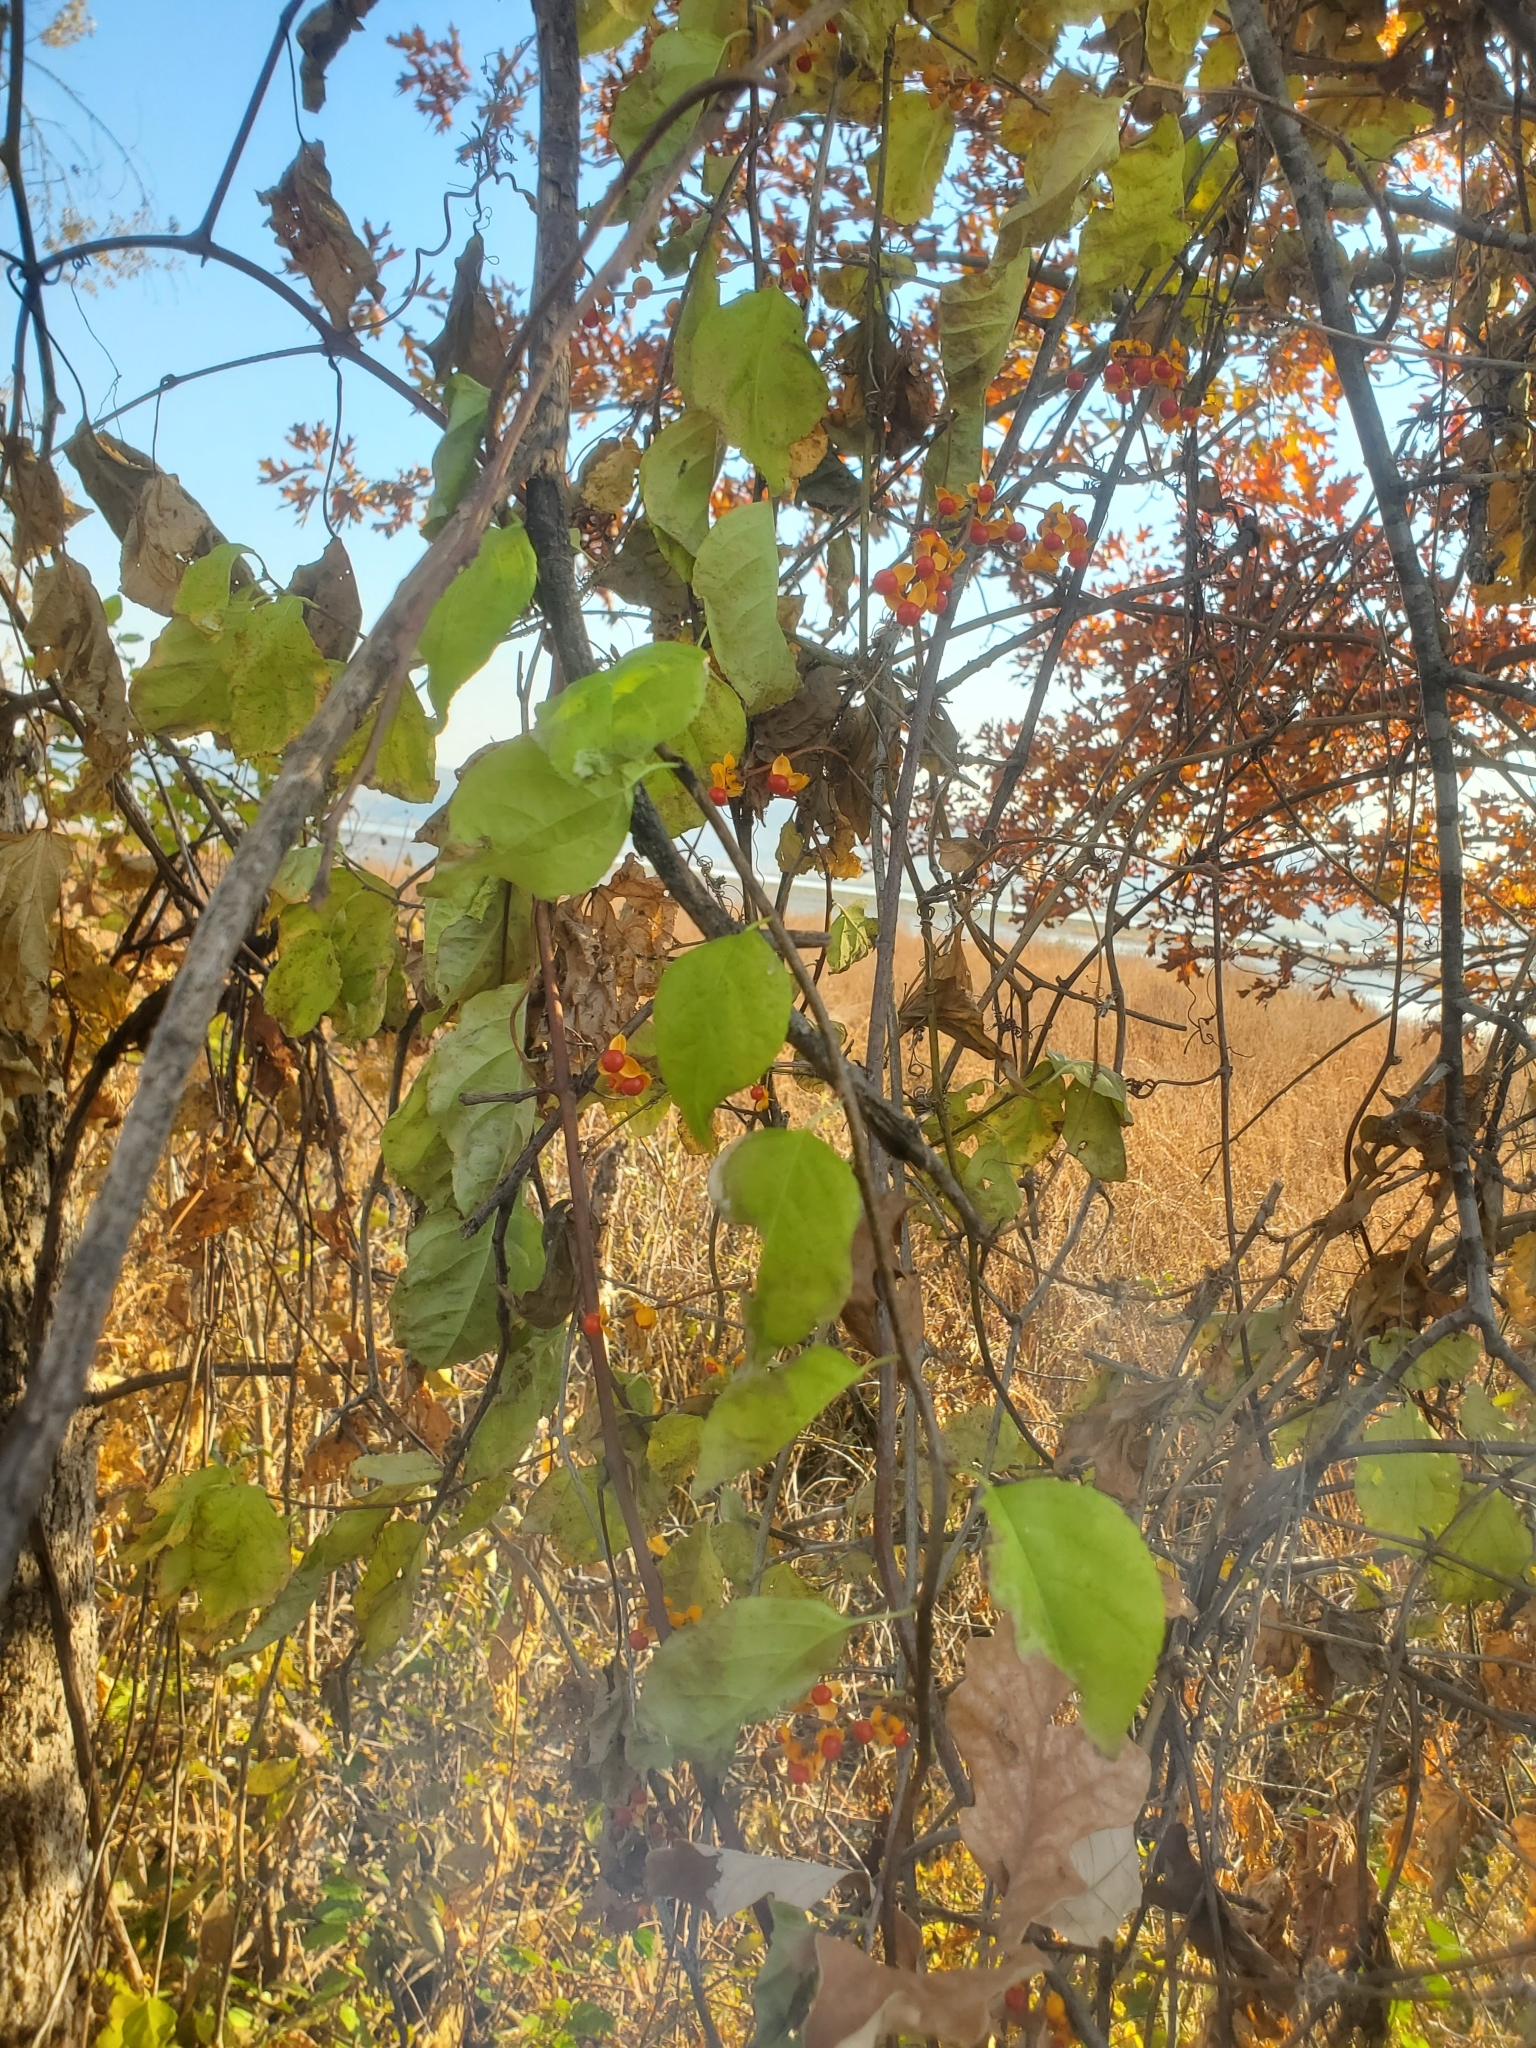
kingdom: Plantae
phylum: Tracheophyta
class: Magnoliopsida
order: Celastrales
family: Celastraceae
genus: Celastrus
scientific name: Celastrus orbiculatus
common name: Oriental bittersweet
